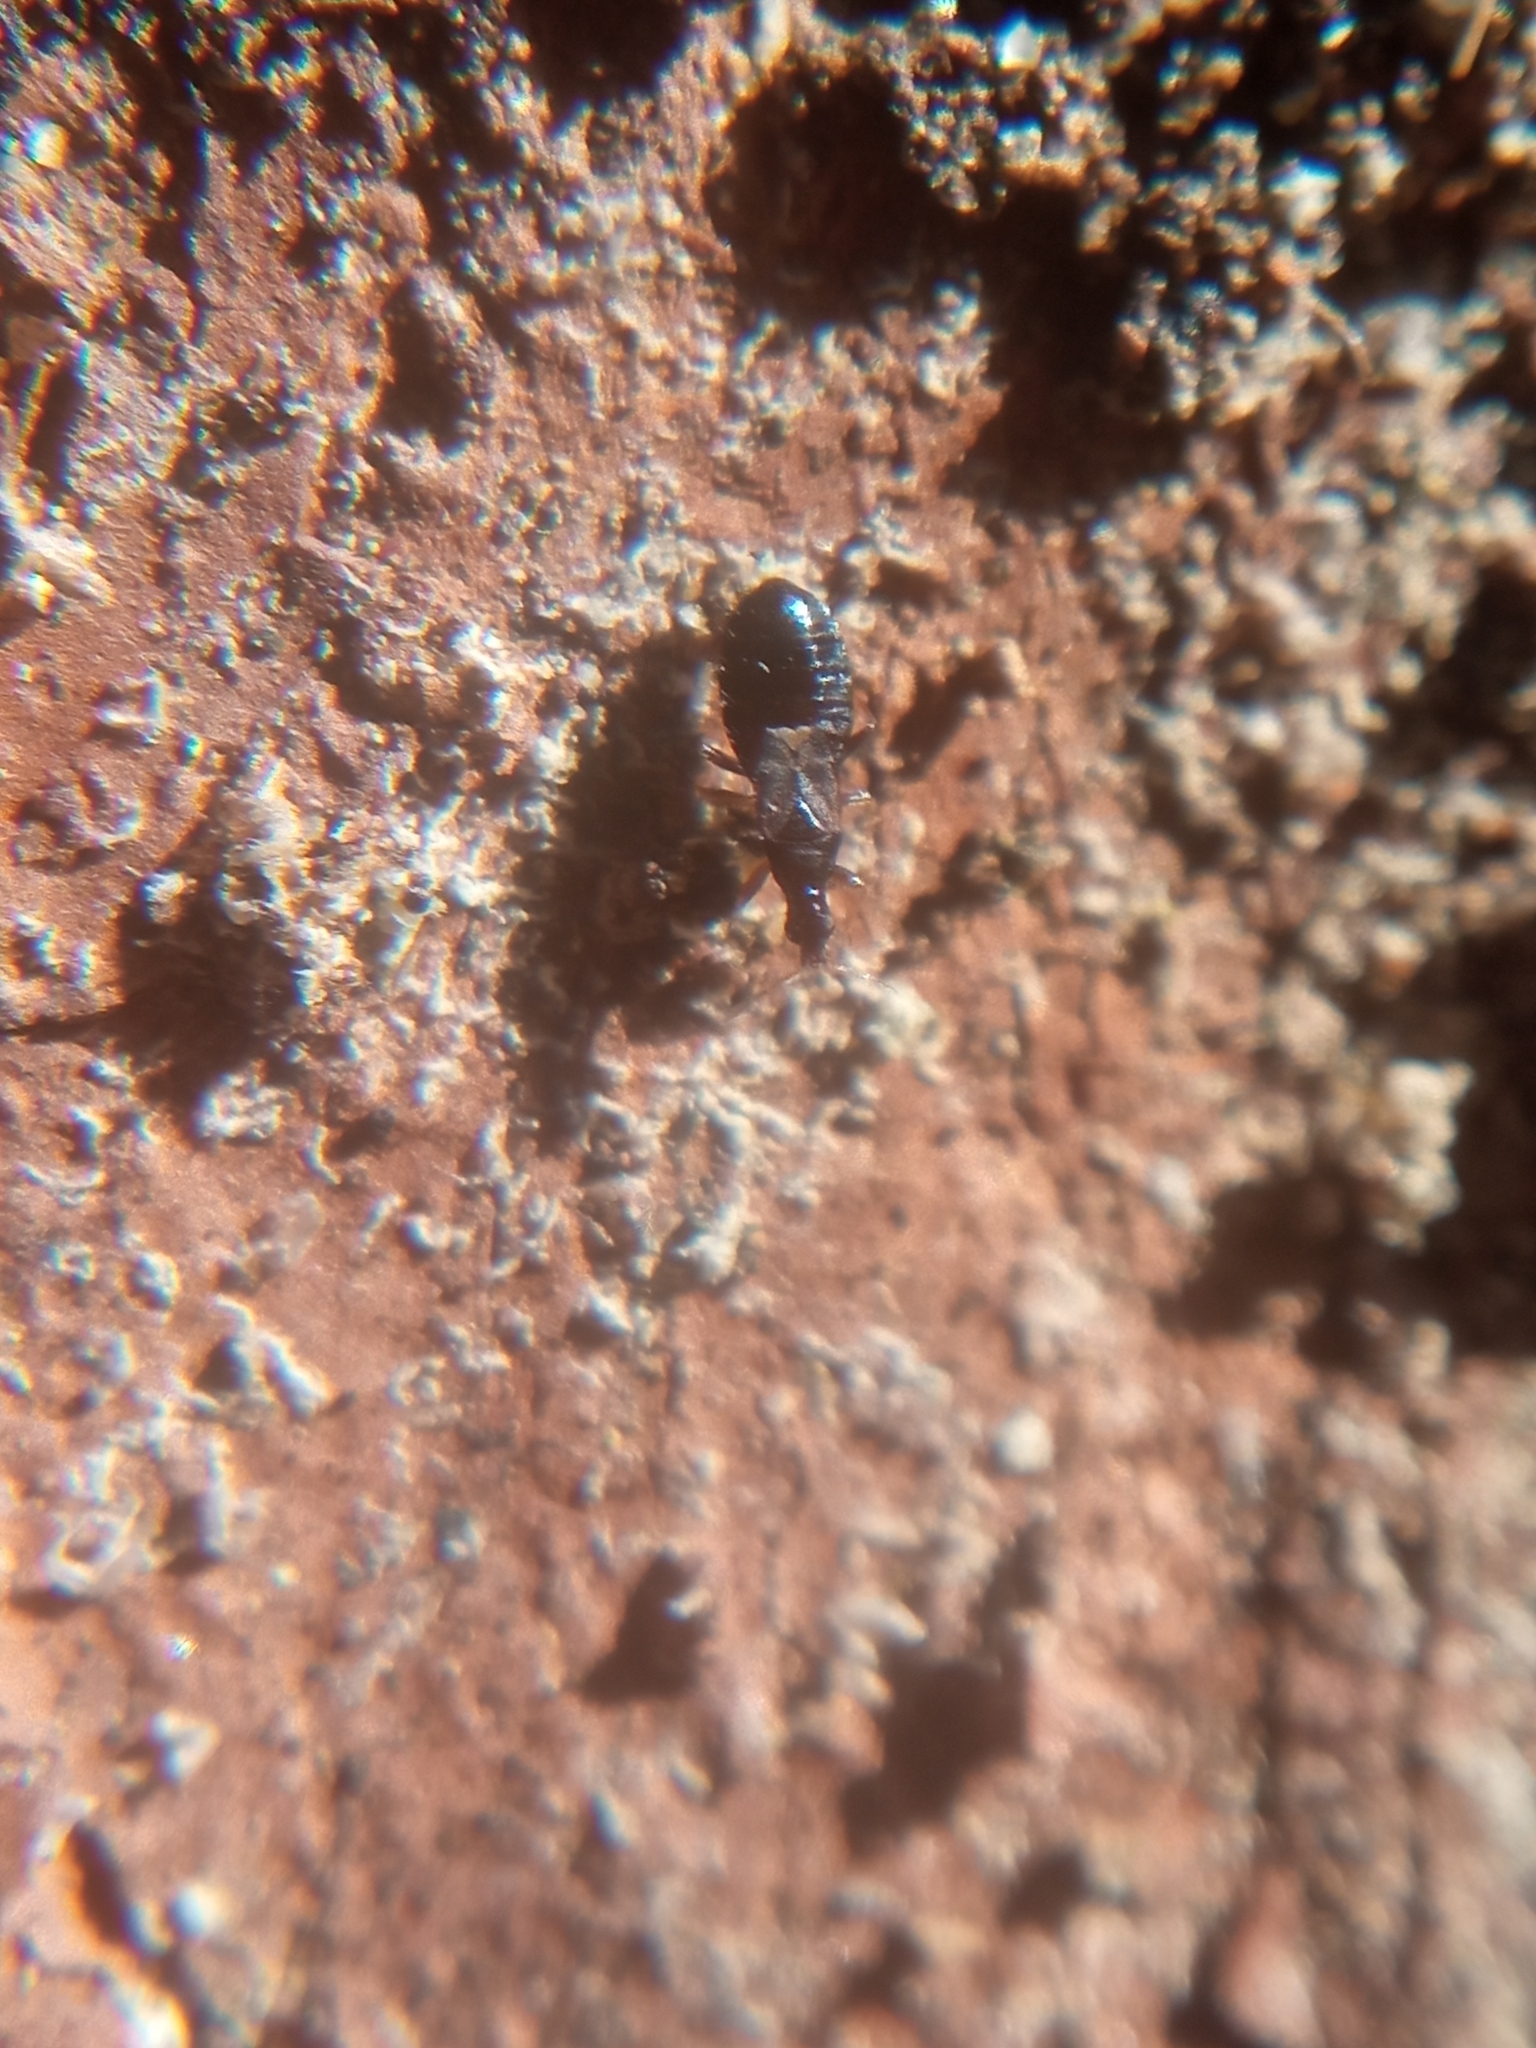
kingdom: Animalia
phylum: Arthropoda
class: Insecta
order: Hemiptera
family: Anthocoridae
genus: Xylocoridea
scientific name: Xylocoridea brevipennis
